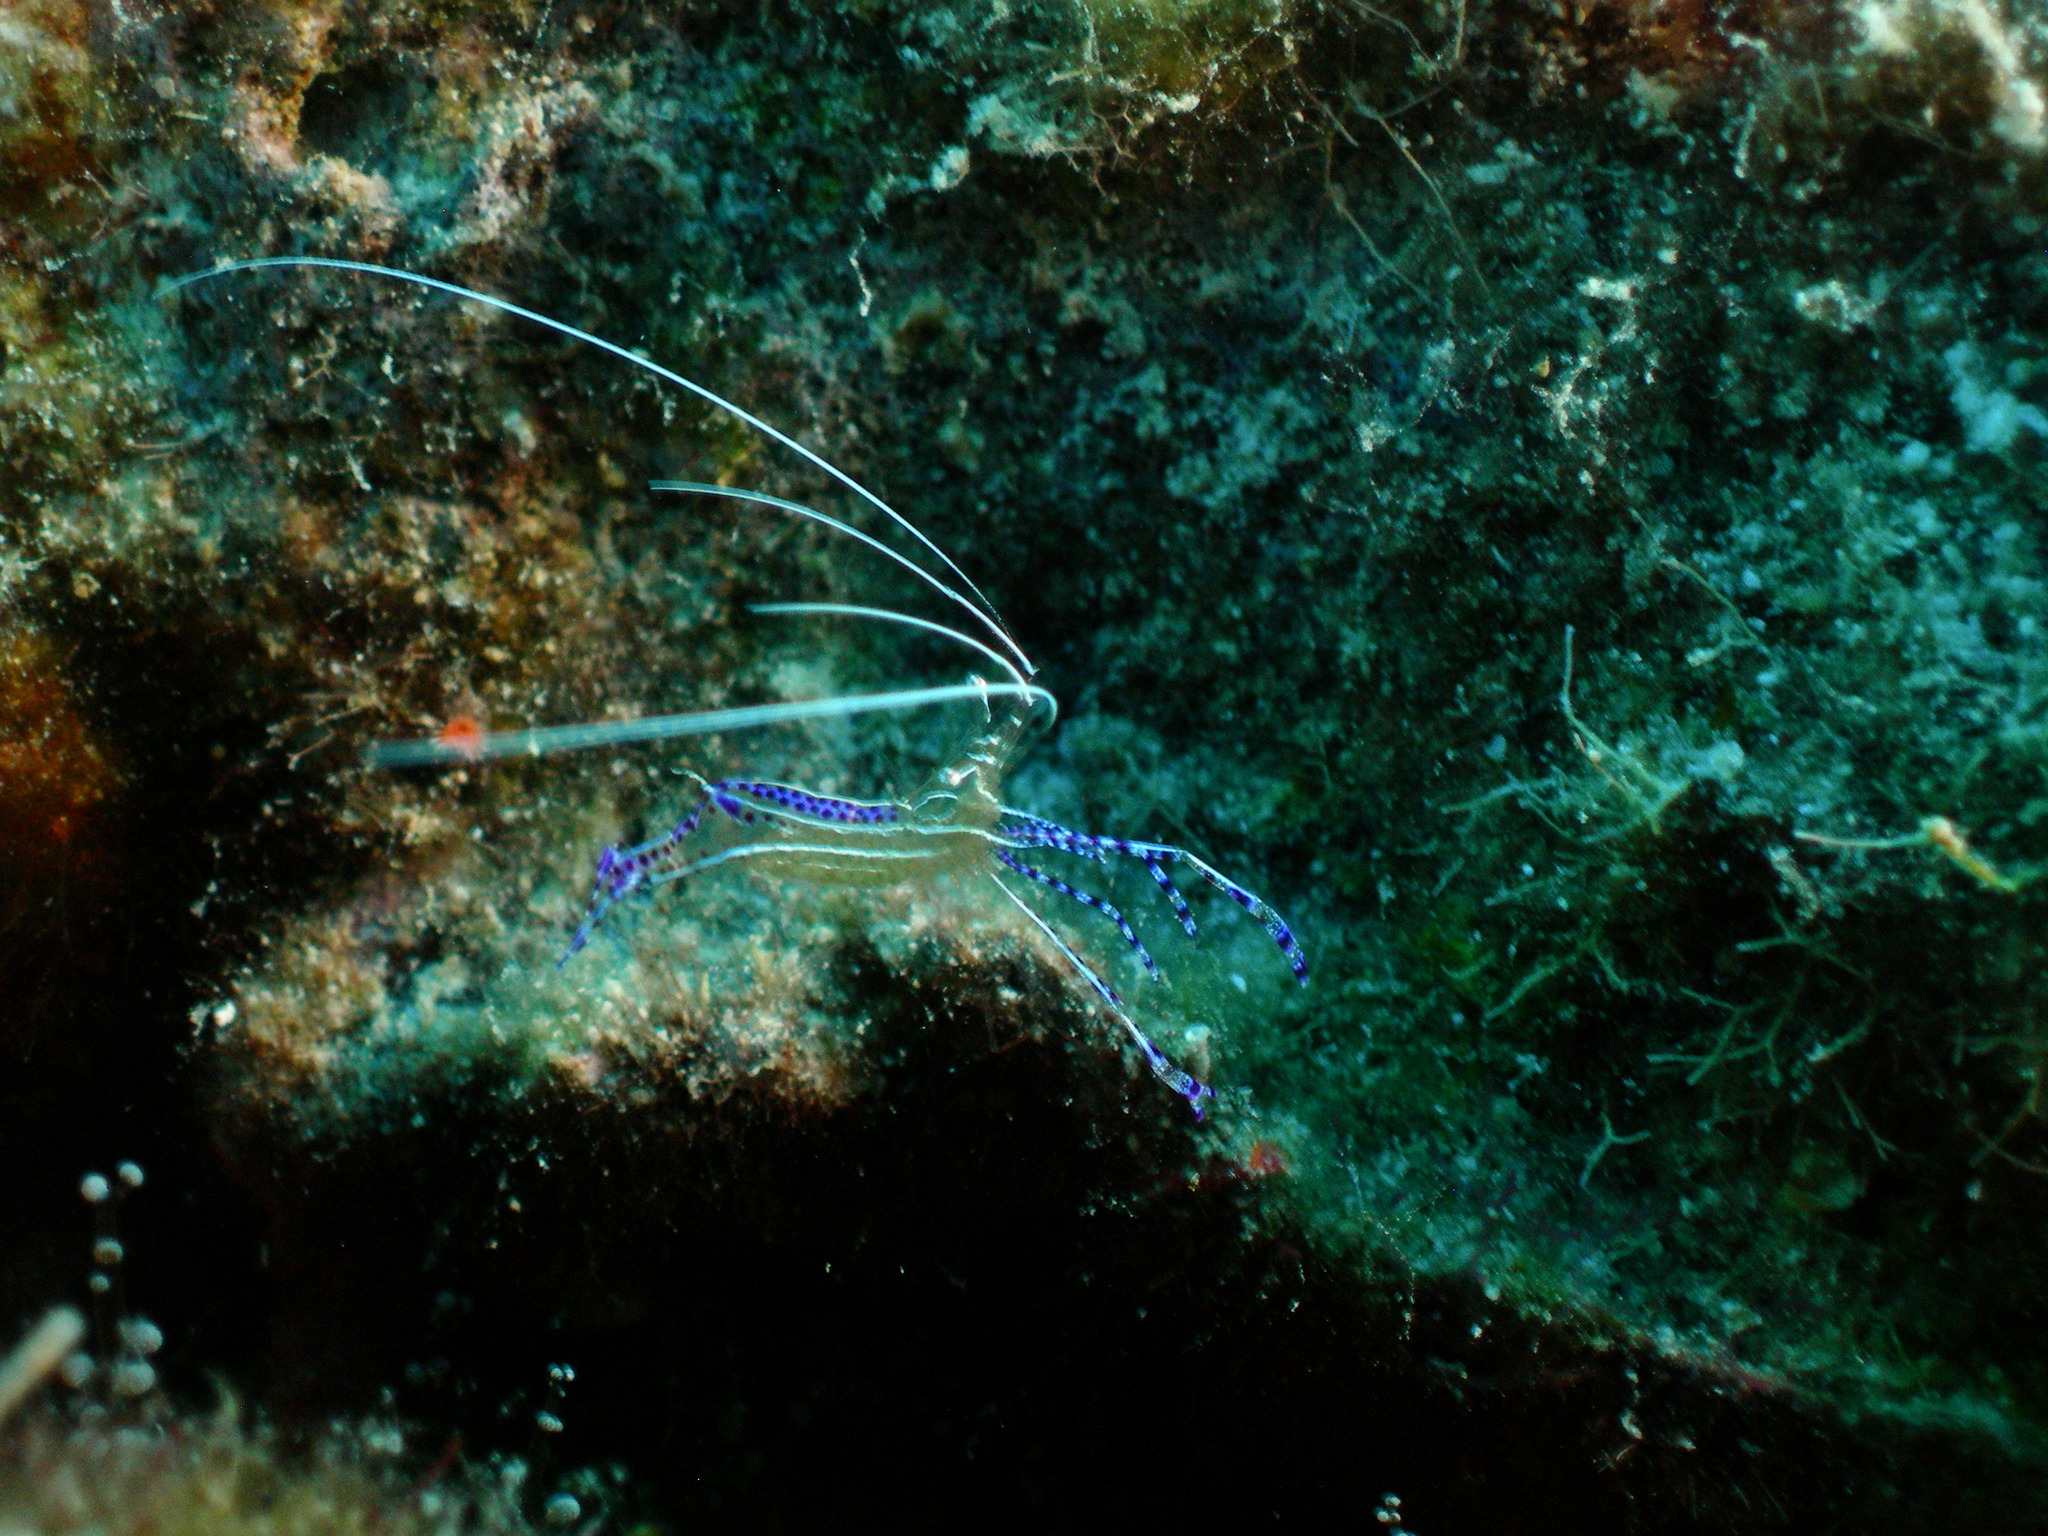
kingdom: Animalia
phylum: Arthropoda
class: Malacostraca
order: Decapoda
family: Palaemonidae
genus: Ancylomenes
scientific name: Ancylomenes pedersoni
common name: Pederson's cleaning shrimp
